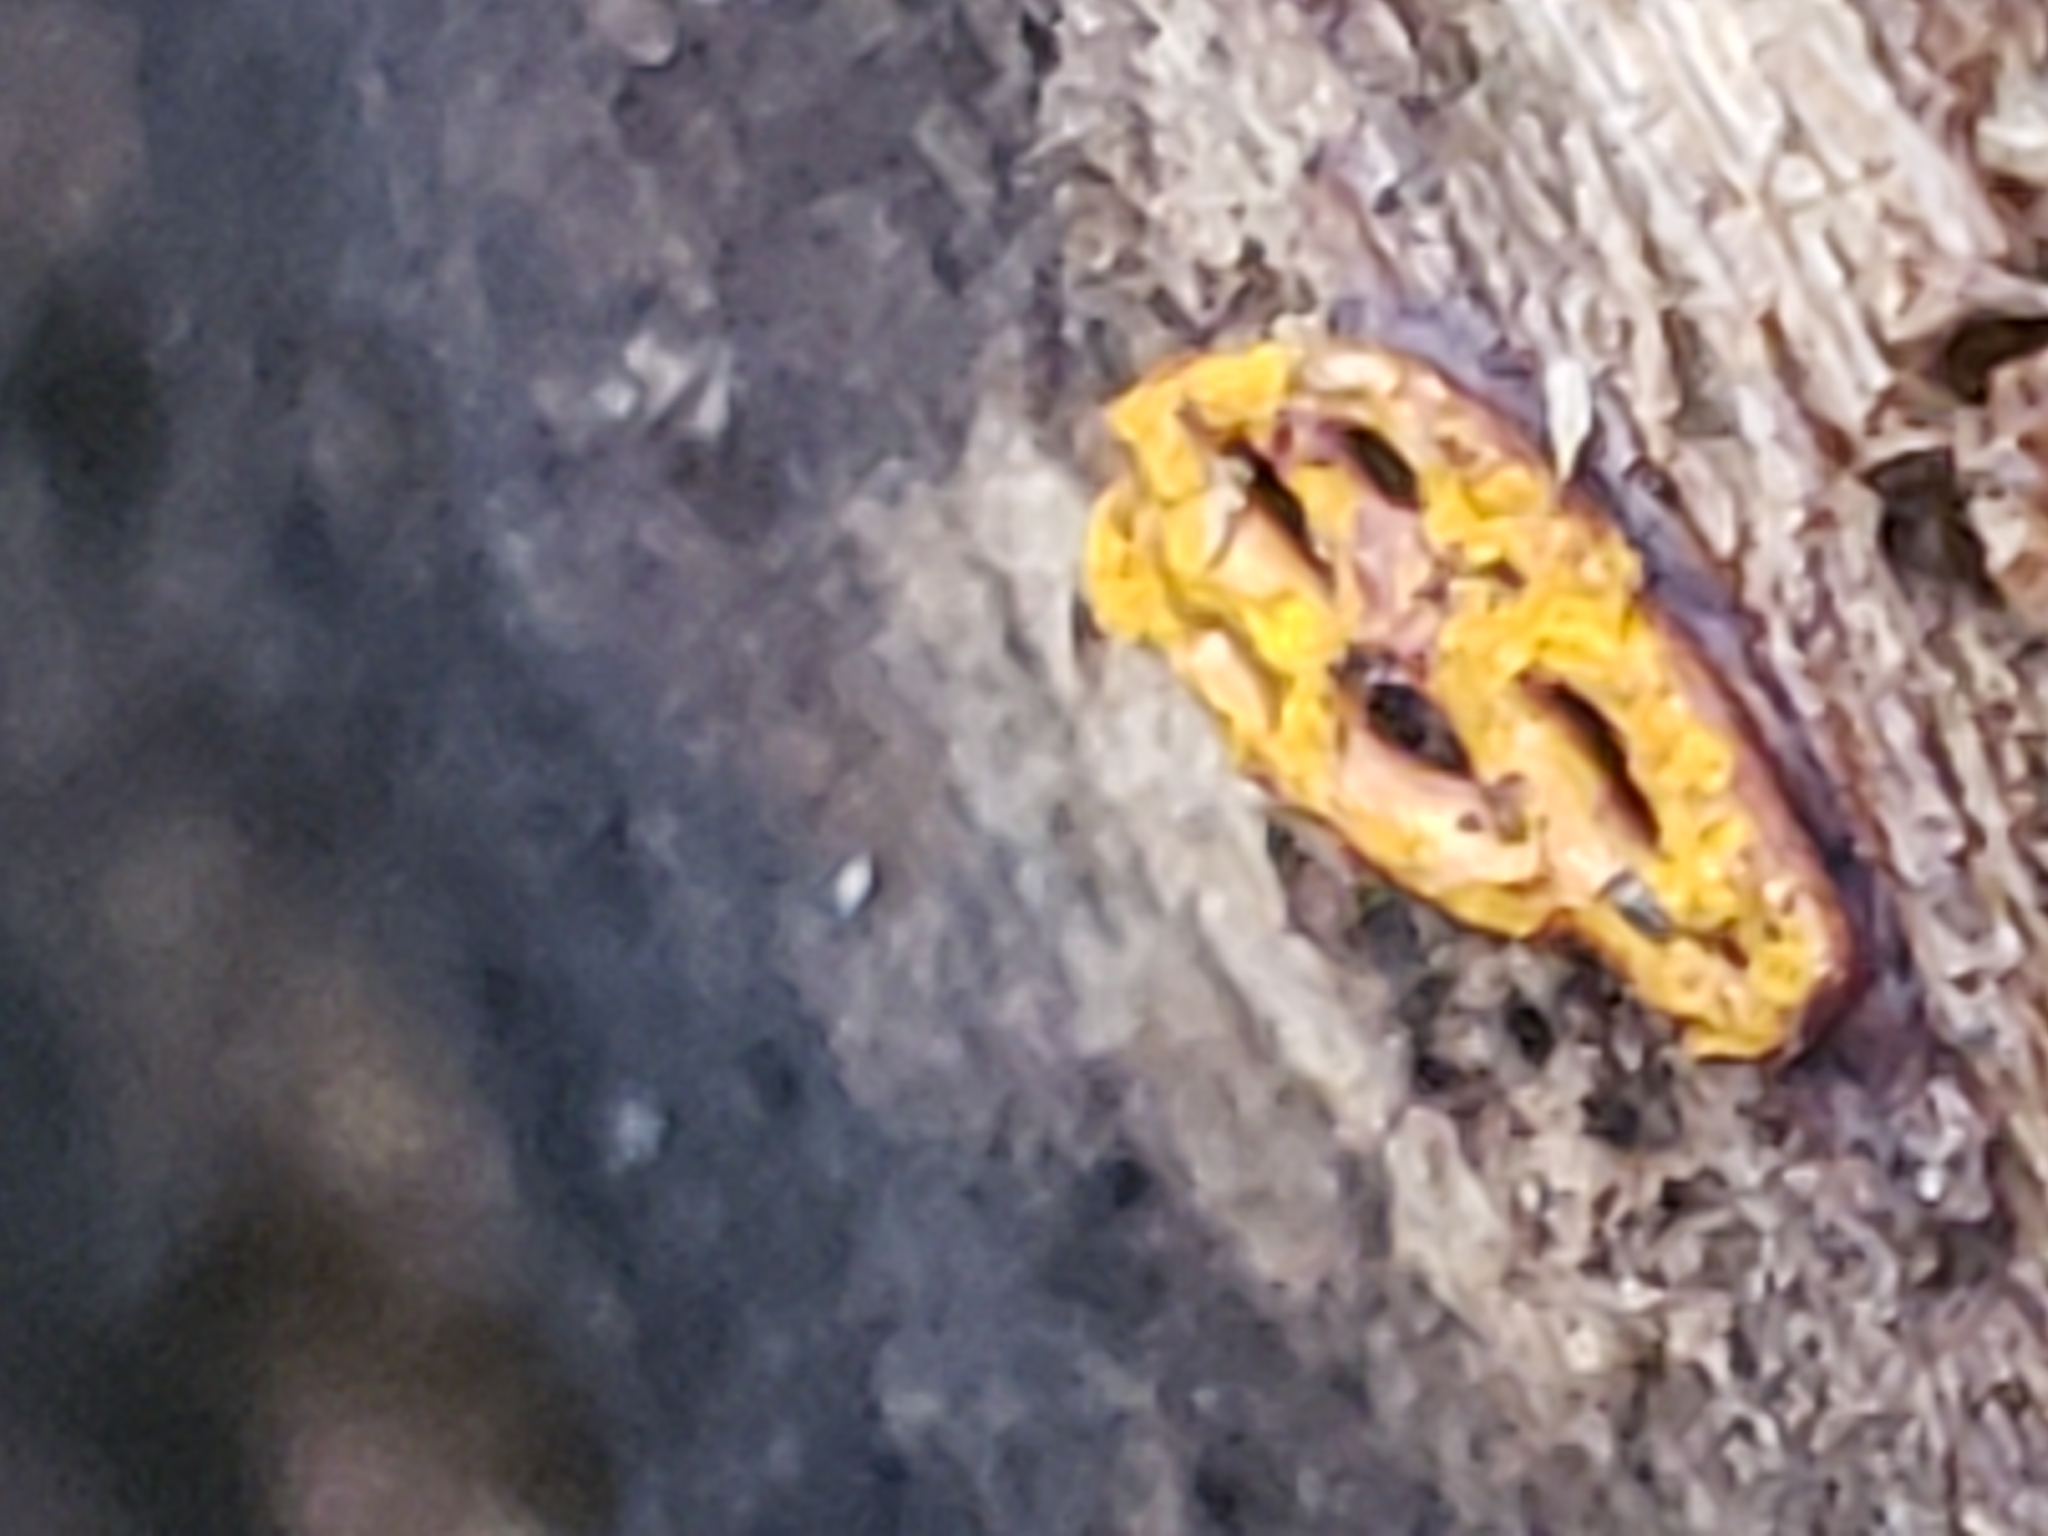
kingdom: Protozoa
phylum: Mycetozoa
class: Myxomycetes
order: Trichiales
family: Arcyriaceae
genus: Hemitrichia
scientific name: Hemitrichia serpula
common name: Pretzel slime mold
